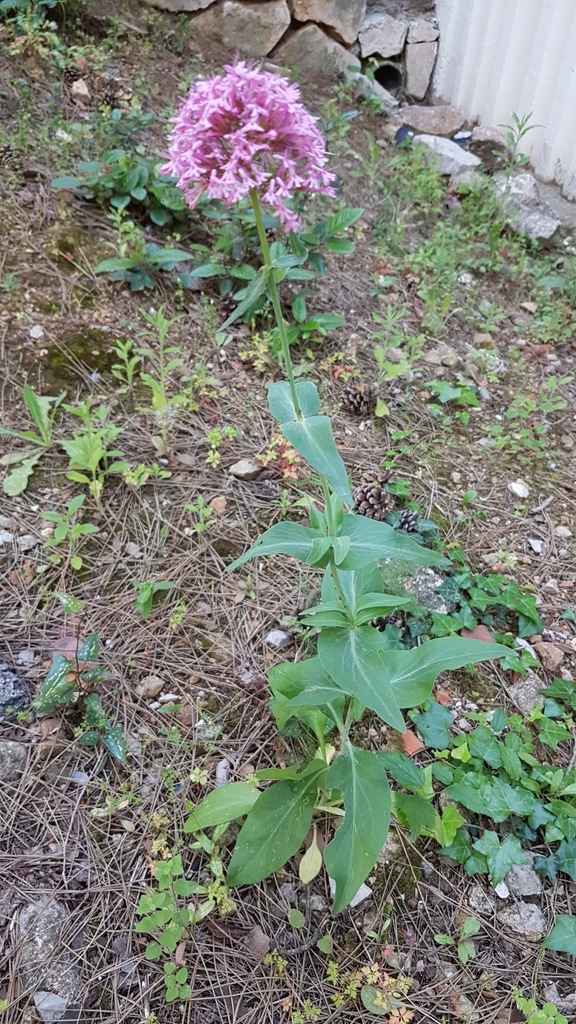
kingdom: Plantae
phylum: Tracheophyta
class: Magnoliopsida
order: Dipsacales
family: Caprifoliaceae
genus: Centranthus
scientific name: Centranthus ruber
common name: Red valerian
